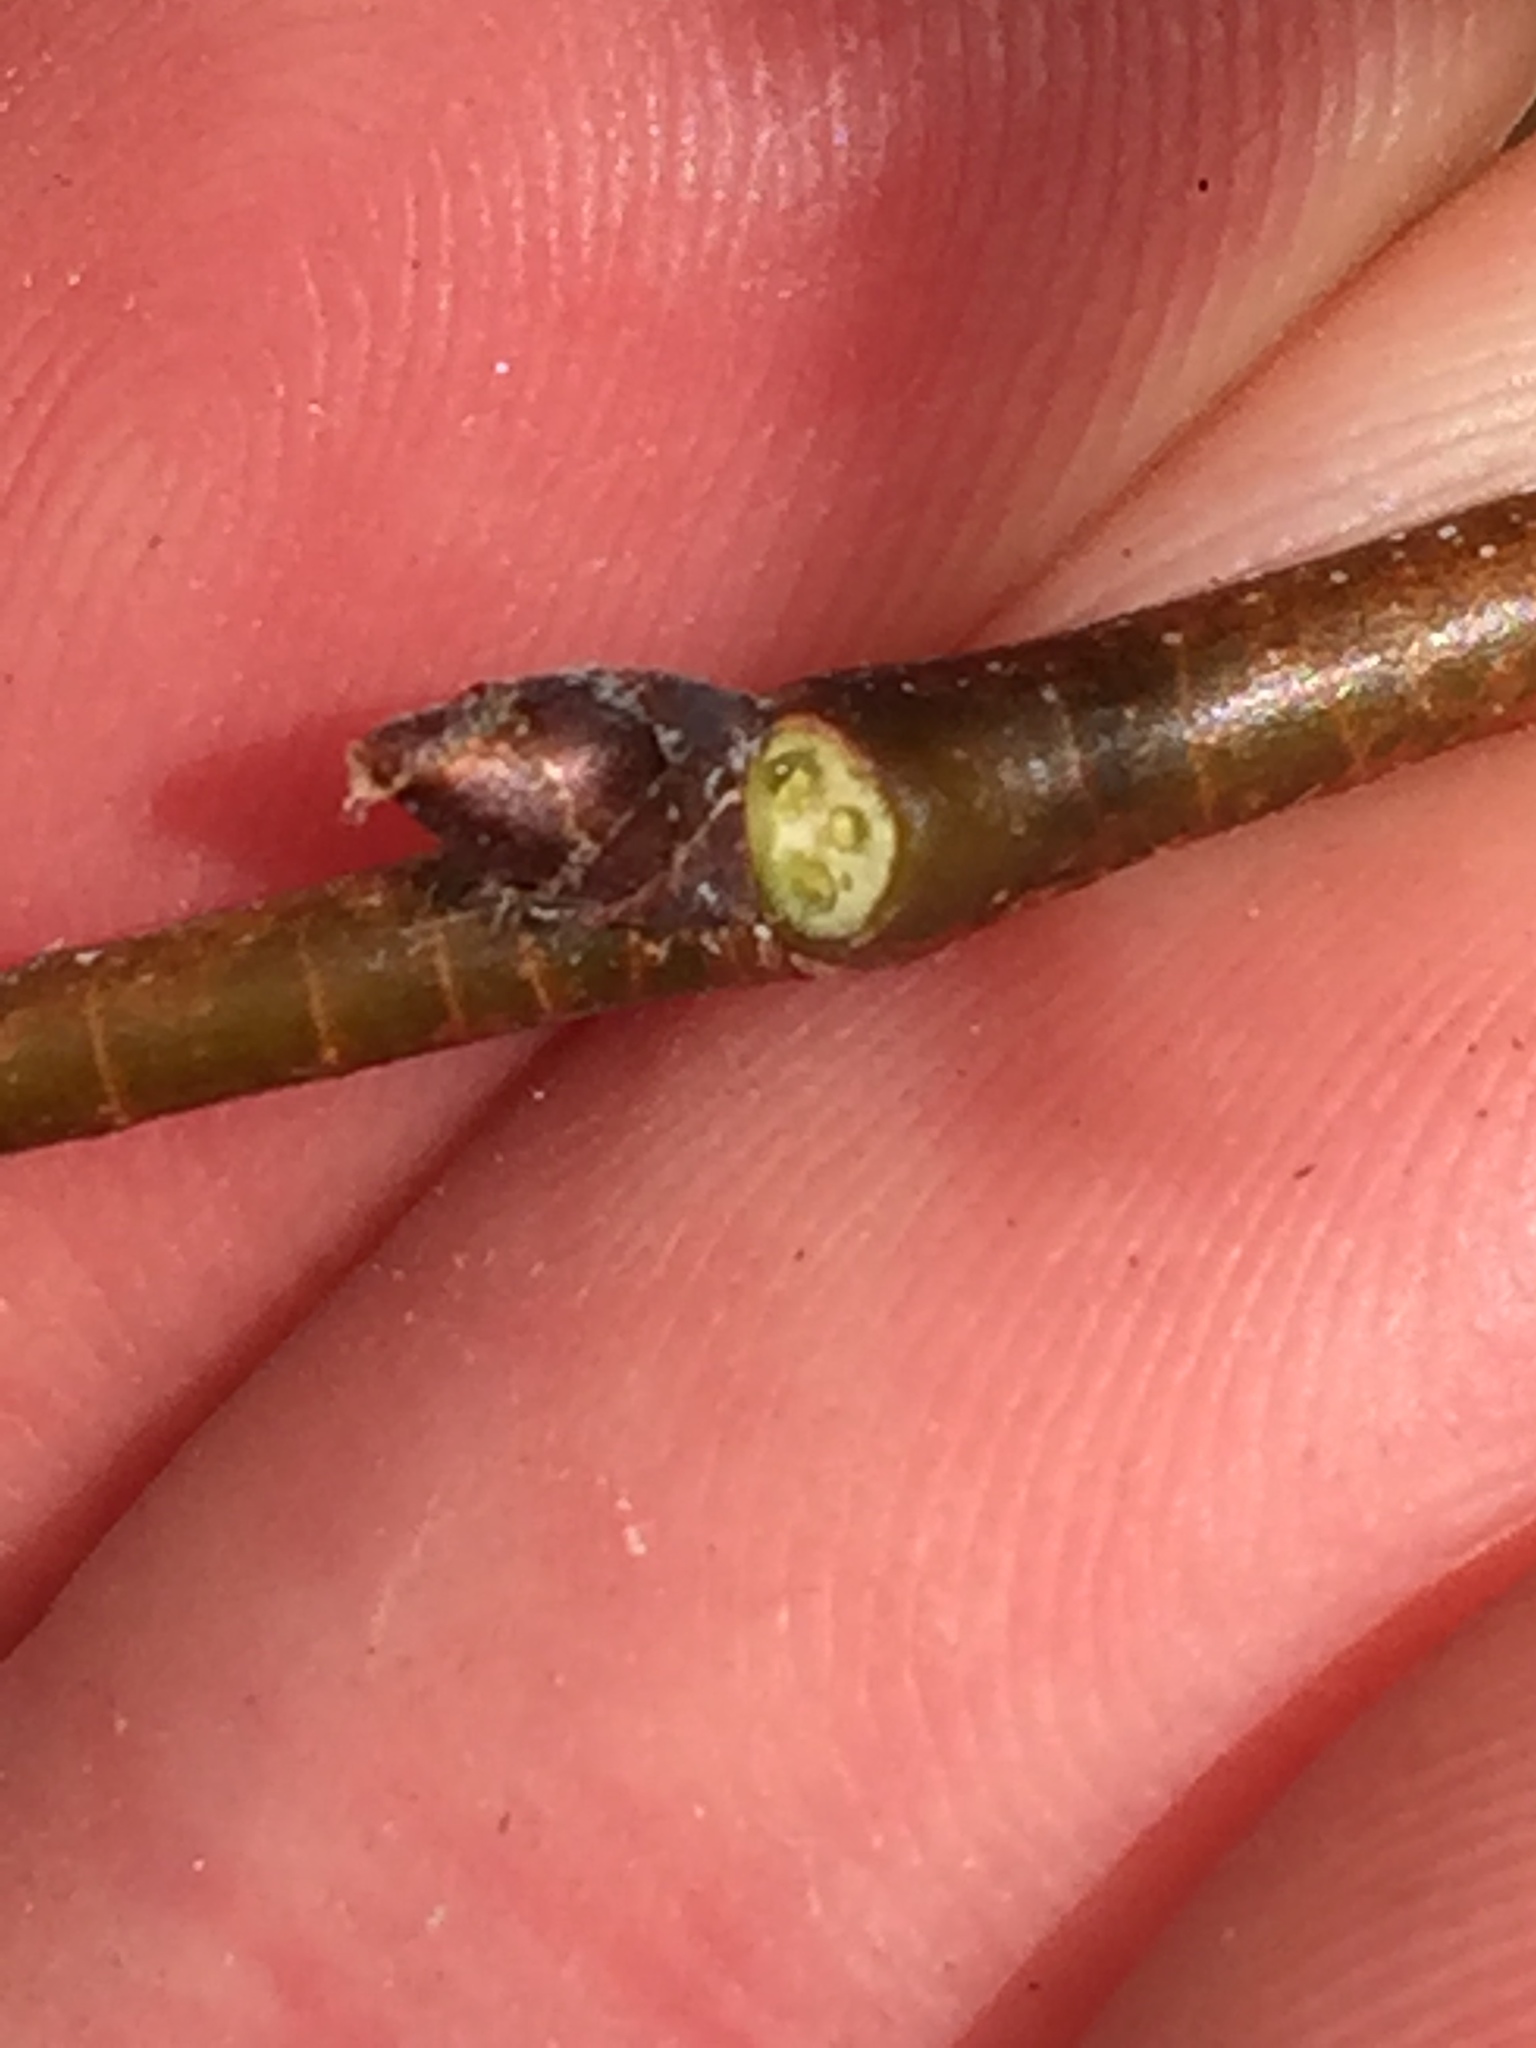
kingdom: Plantae
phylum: Tracheophyta
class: Magnoliopsida
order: Rosales
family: Ulmaceae
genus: Ulmus
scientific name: Ulmus hollandica
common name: Dutch elm
